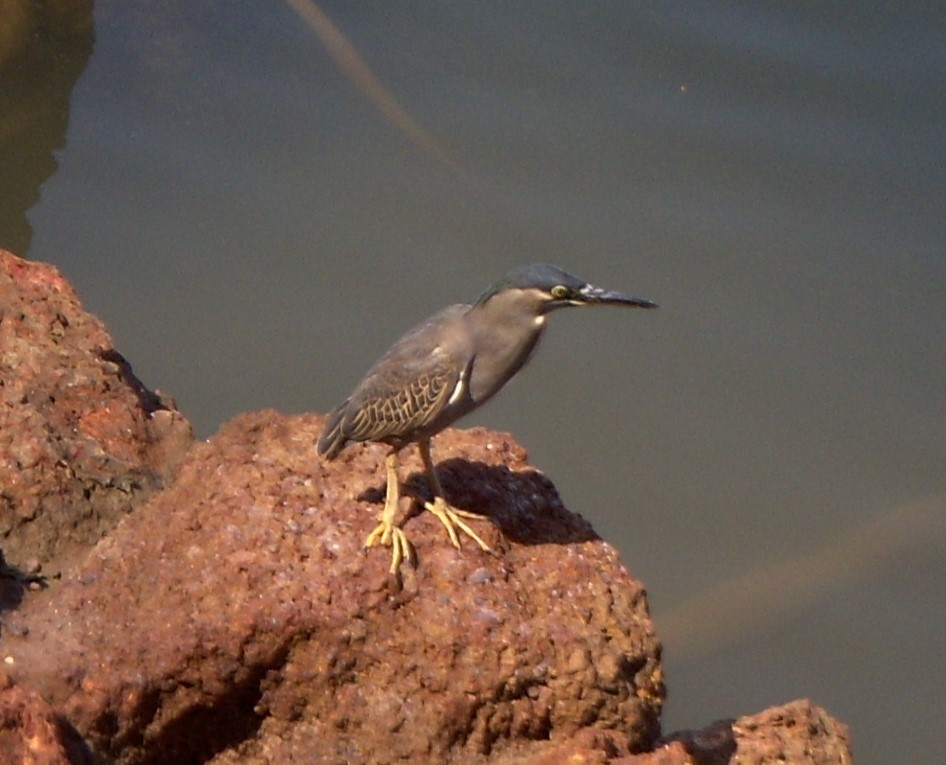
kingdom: Animalia
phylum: Chordata
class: Aves
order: Pelecaniformes
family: Ardeidae
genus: Butorides
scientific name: Butorides striata
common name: Striated heron
